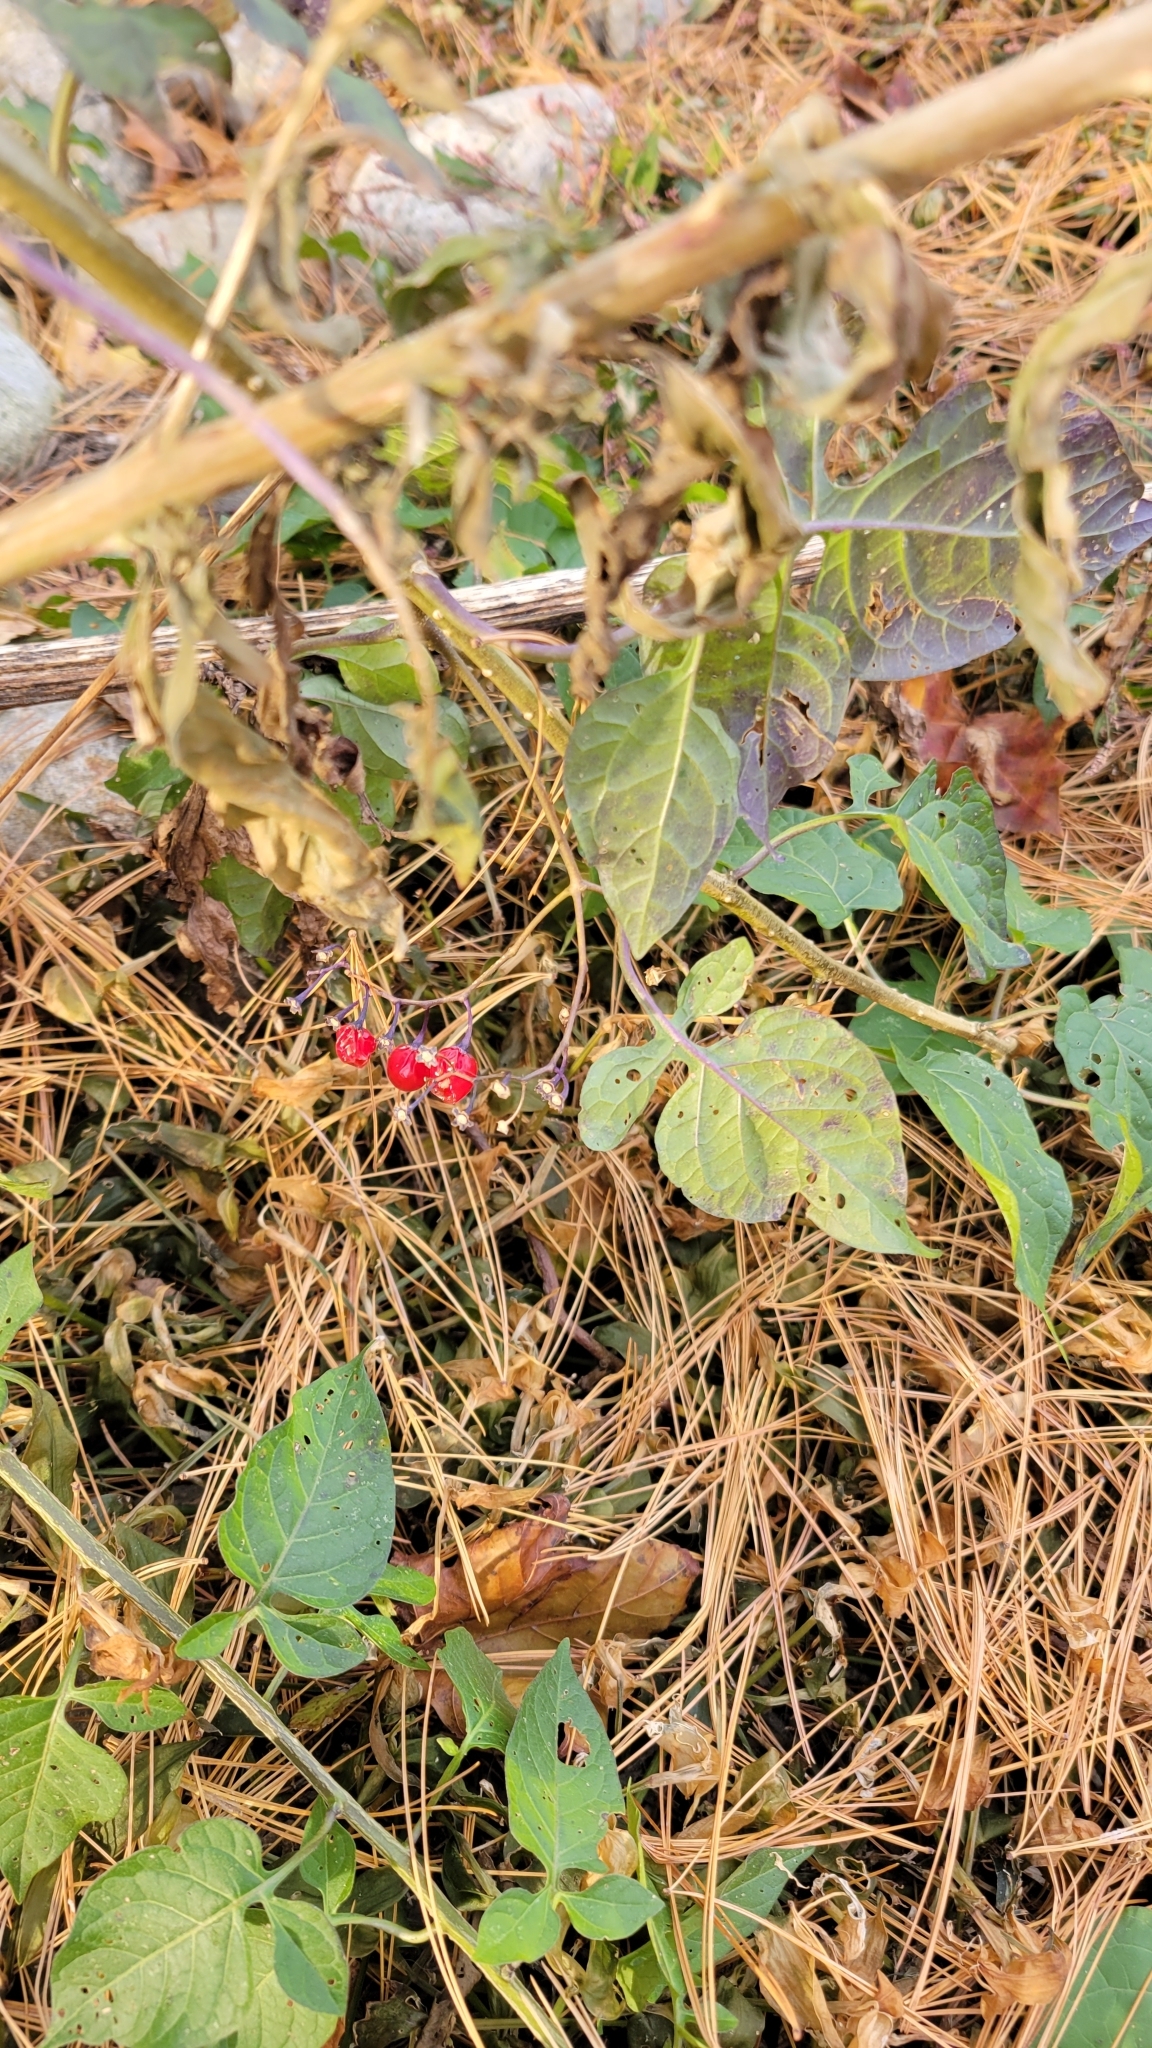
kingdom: Plantae
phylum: Tracheophyta
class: Magnoliopsida
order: Solanales
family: Solanaceae
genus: Solanum
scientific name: Solanum dulcamara
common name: Climbing nightshade
